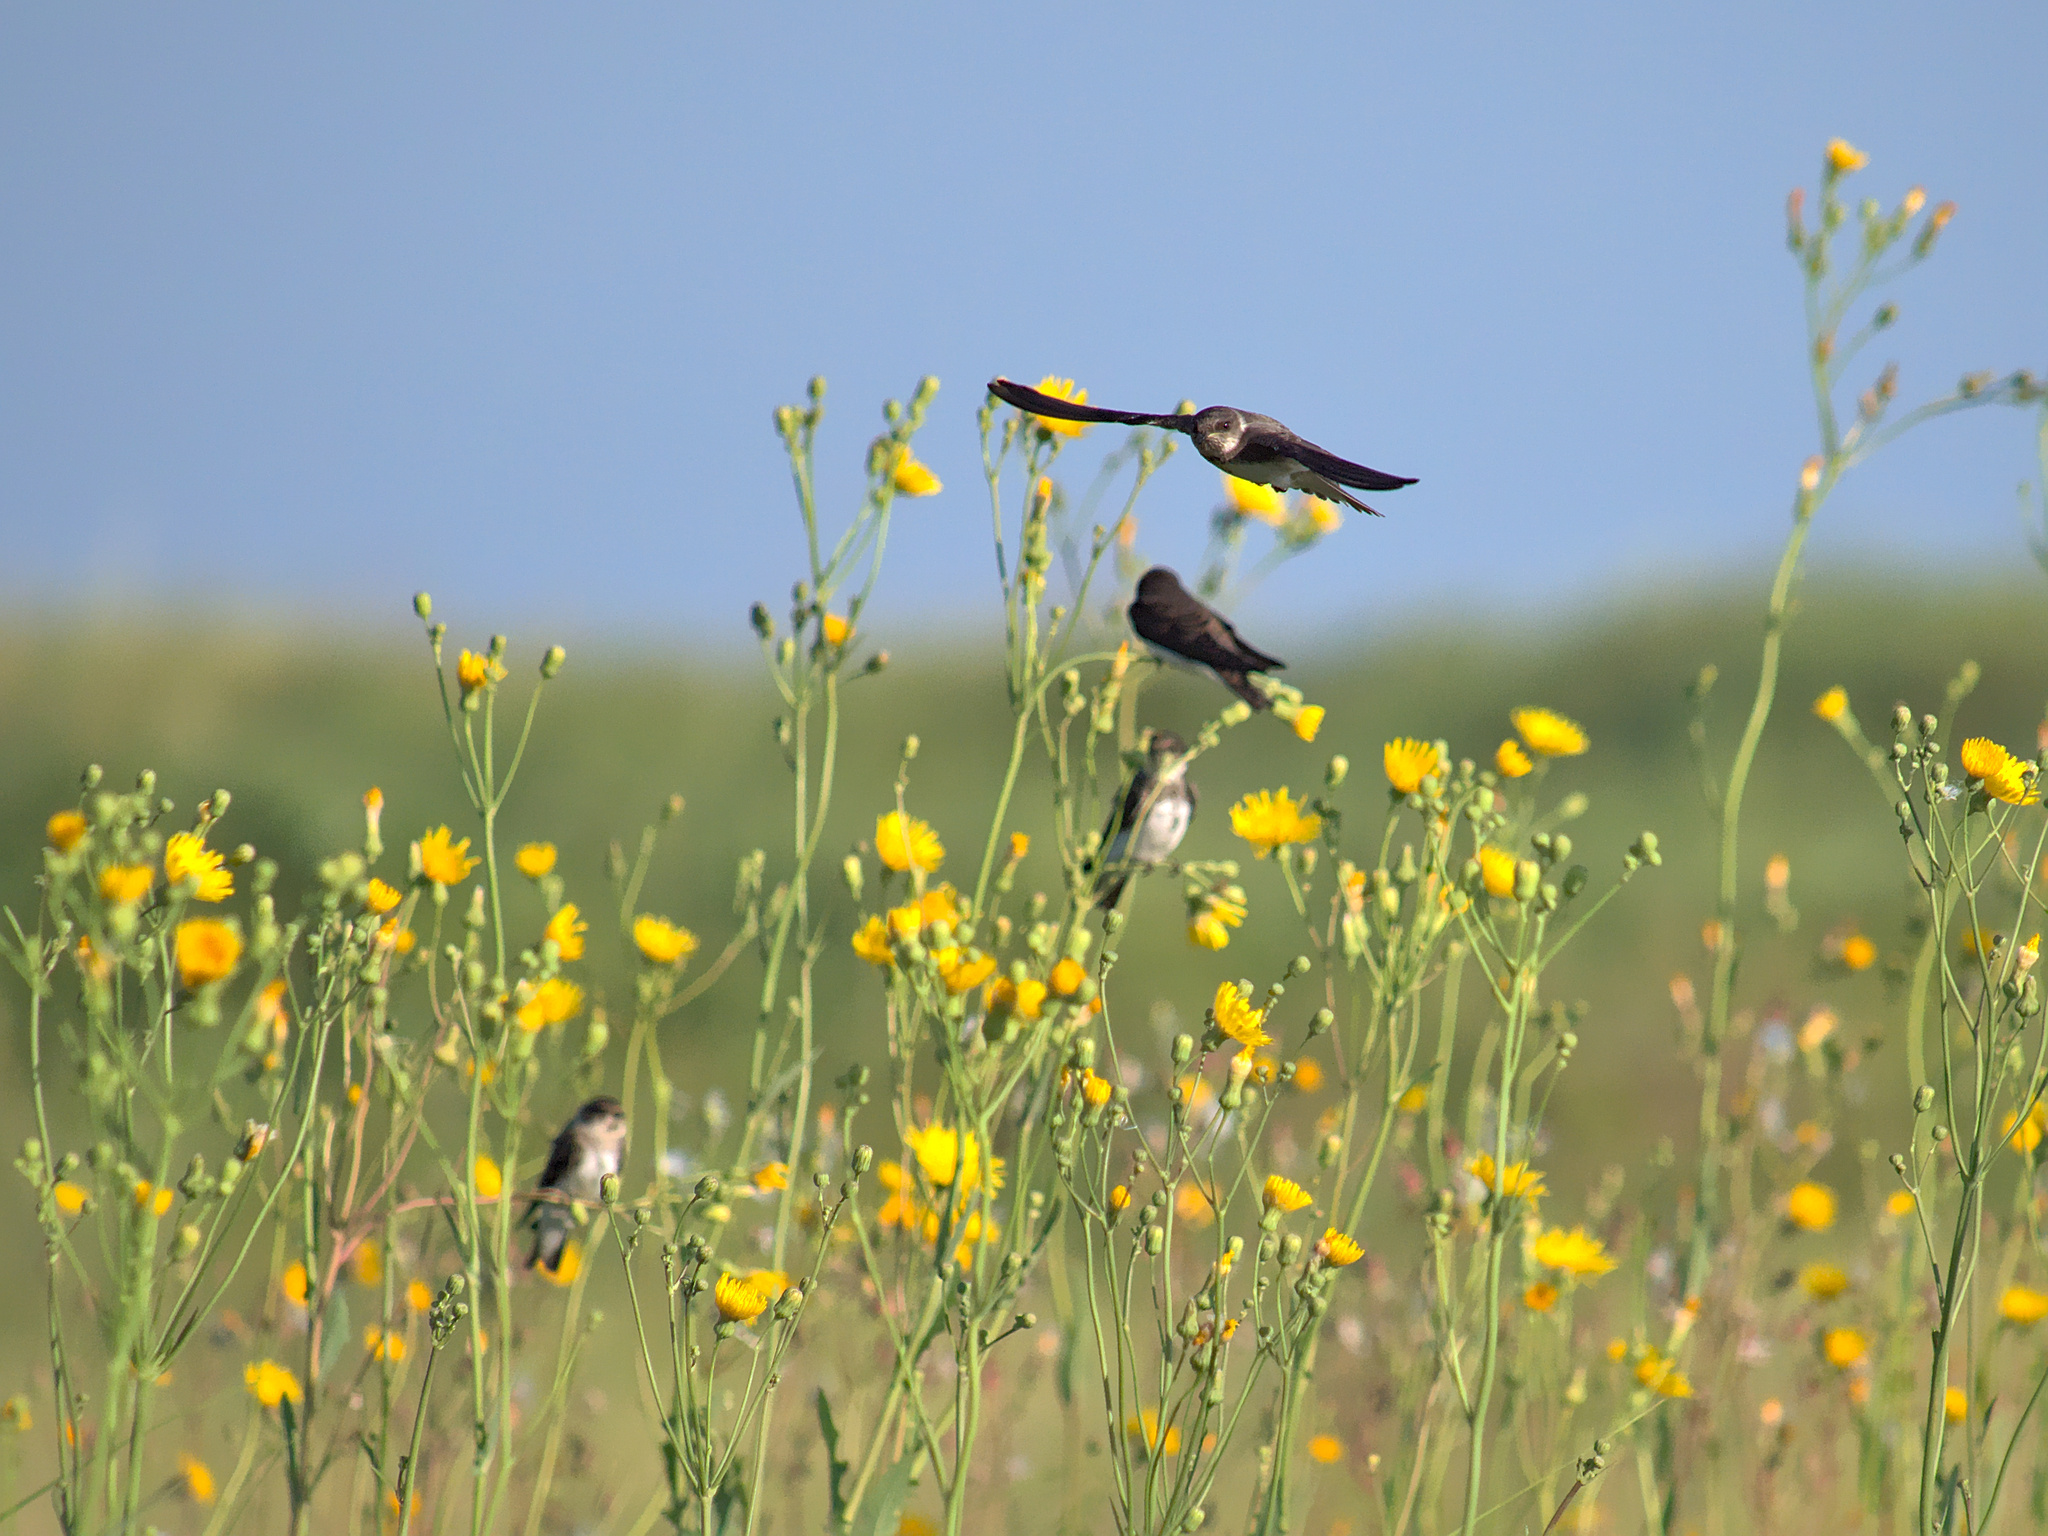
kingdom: Animalia
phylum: Chordata
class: Aves
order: Passeriformes
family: Hirundinidae
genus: Riparia
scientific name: Riparia riparia
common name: Sand martin
